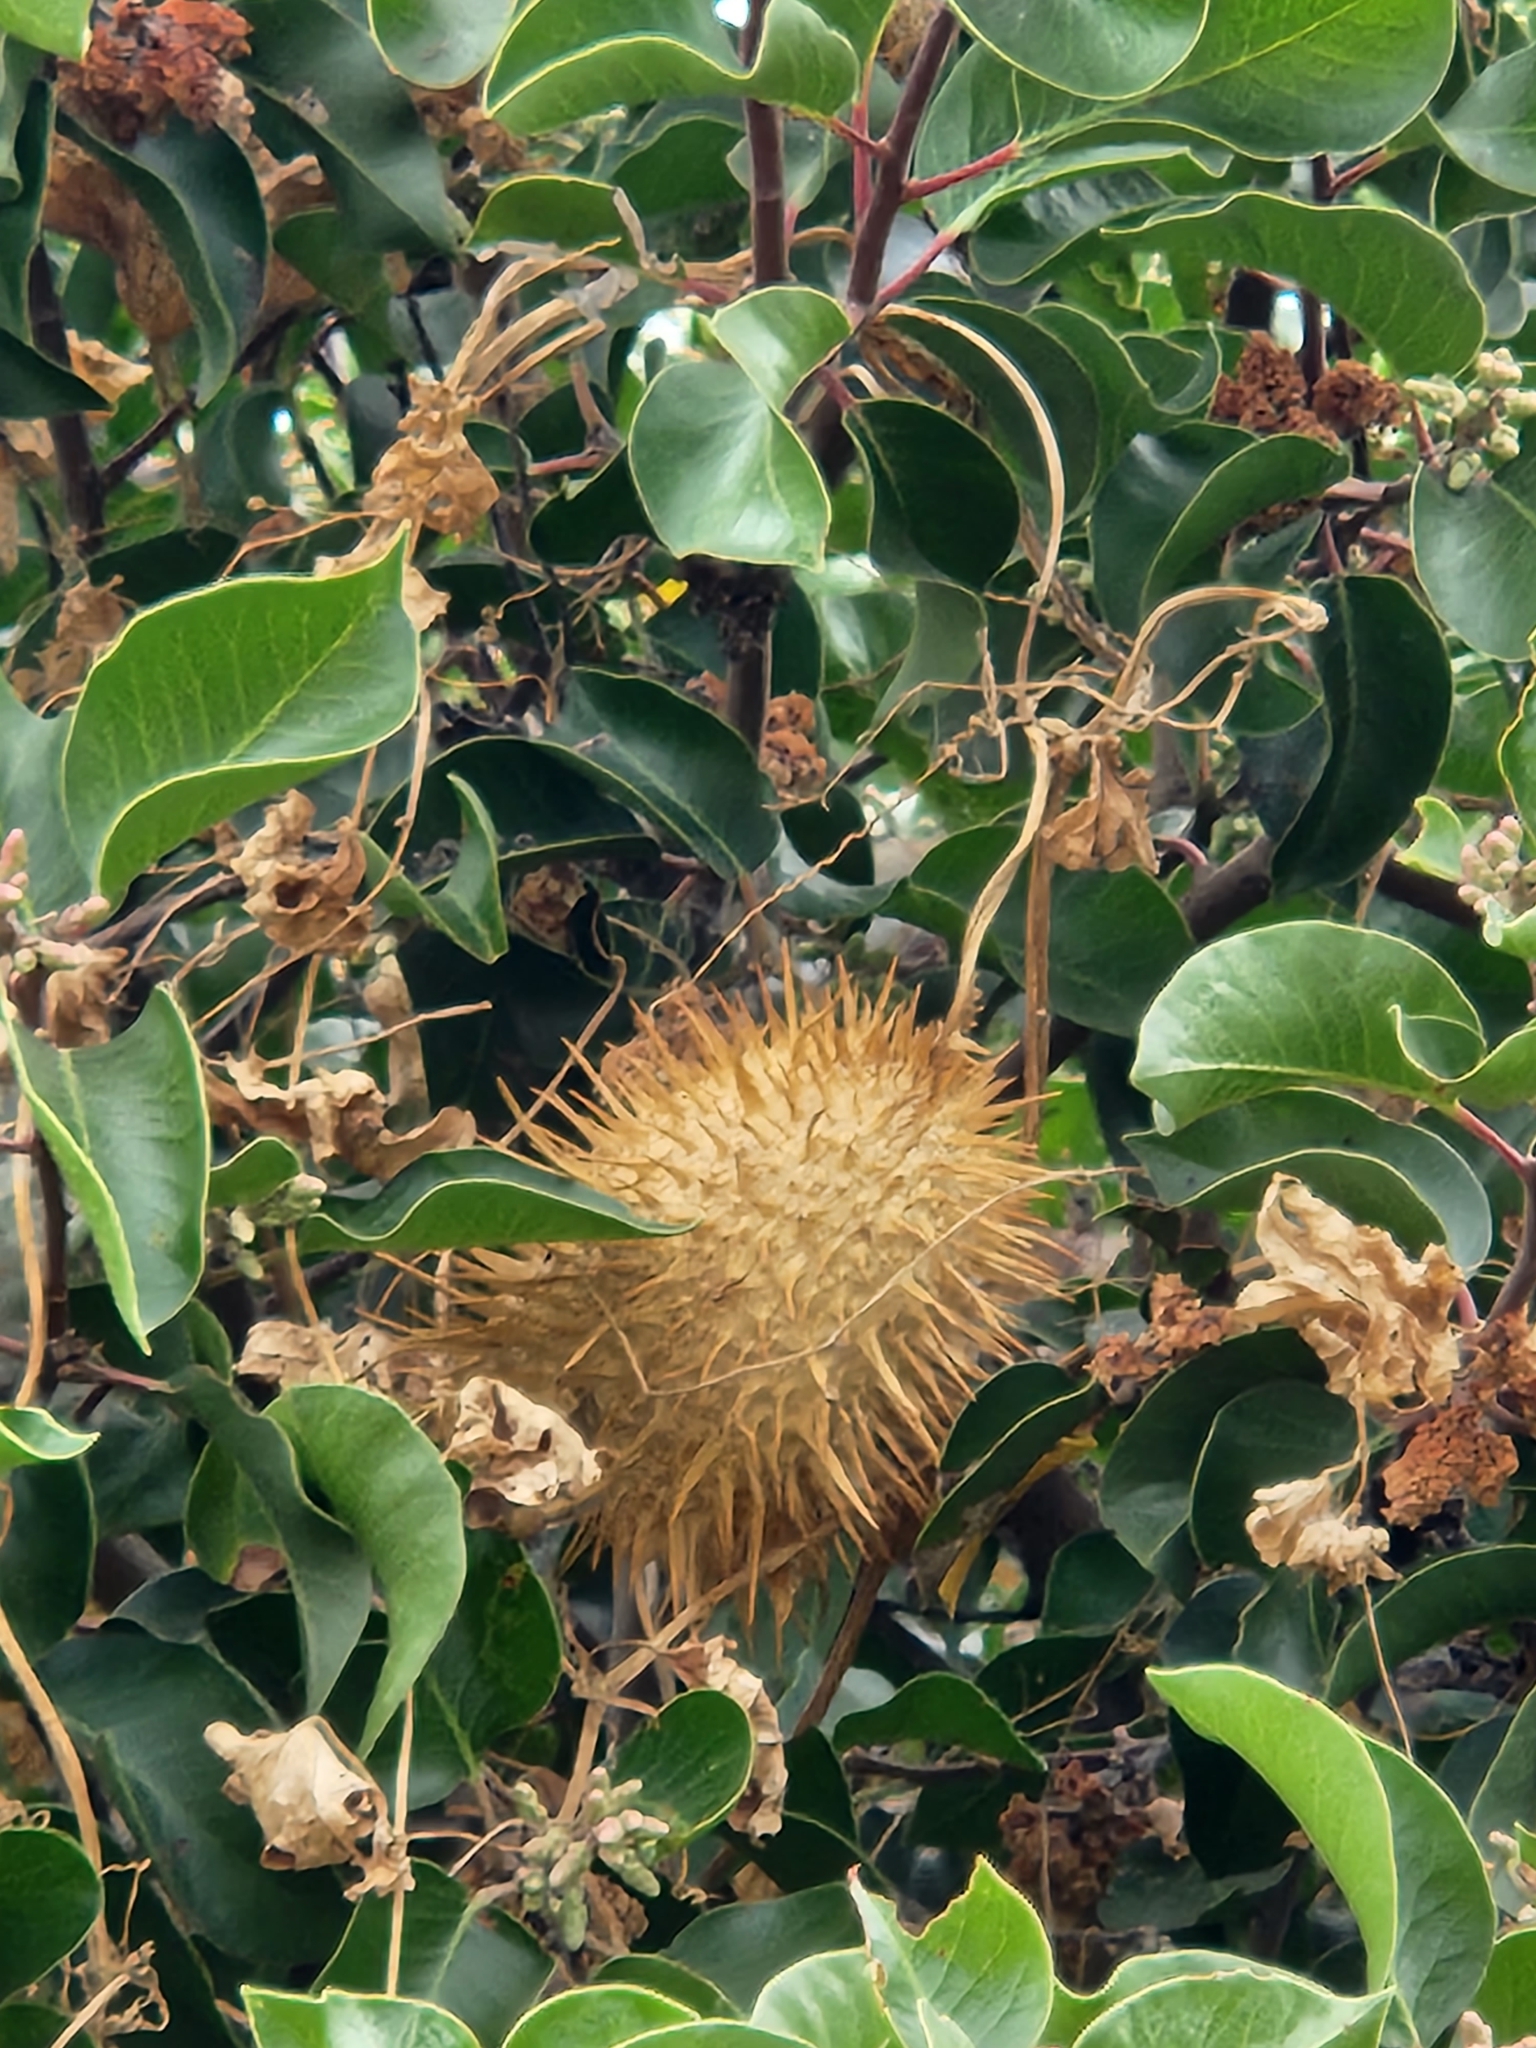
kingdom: Plantae
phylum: Tracheophyta
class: Magnoliopsida
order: Cucurbitales
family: Cucurbitaceae
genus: Marah
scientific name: Marah macrocarpa
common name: Cucamonga manroot
